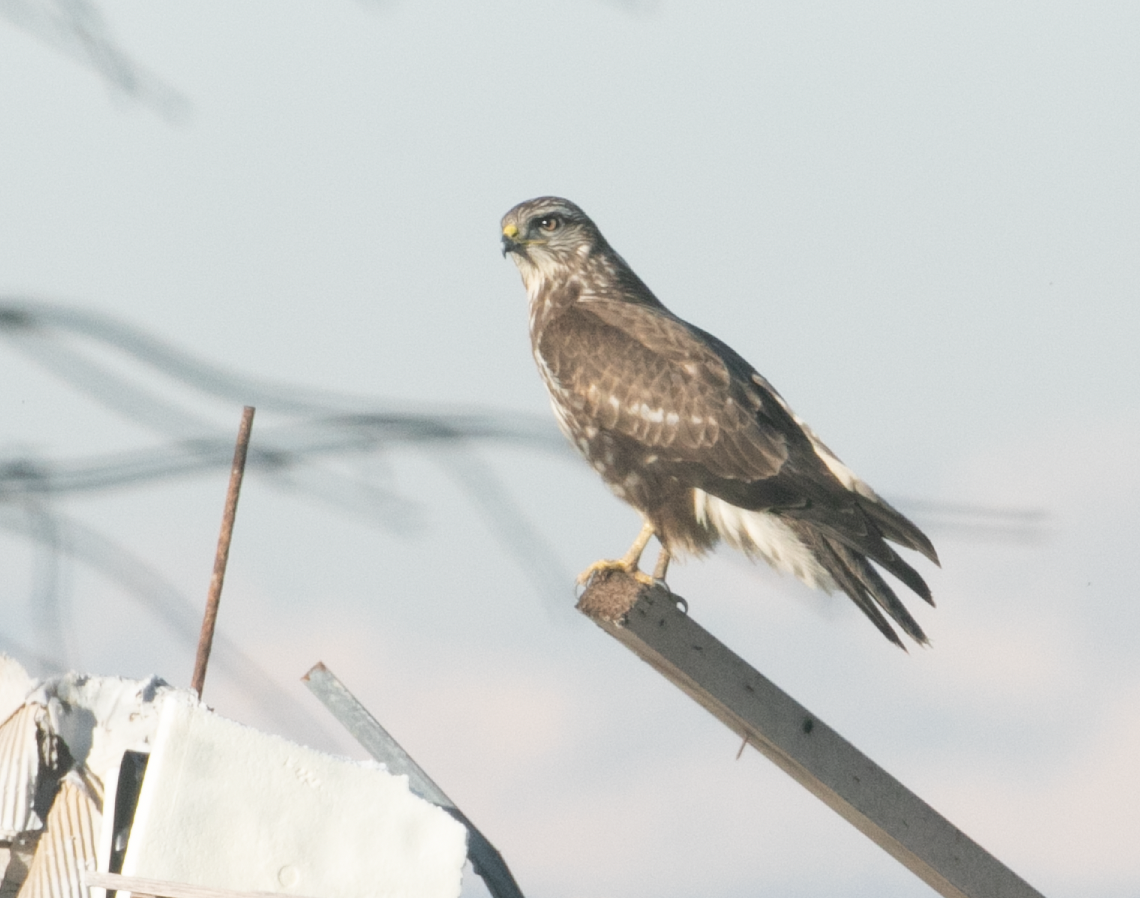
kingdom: Animalia
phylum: Chordata
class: Aves
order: Accipitriformes
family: Accipitridae
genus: Buteo
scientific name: Buteo buteo
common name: Common buzzard
